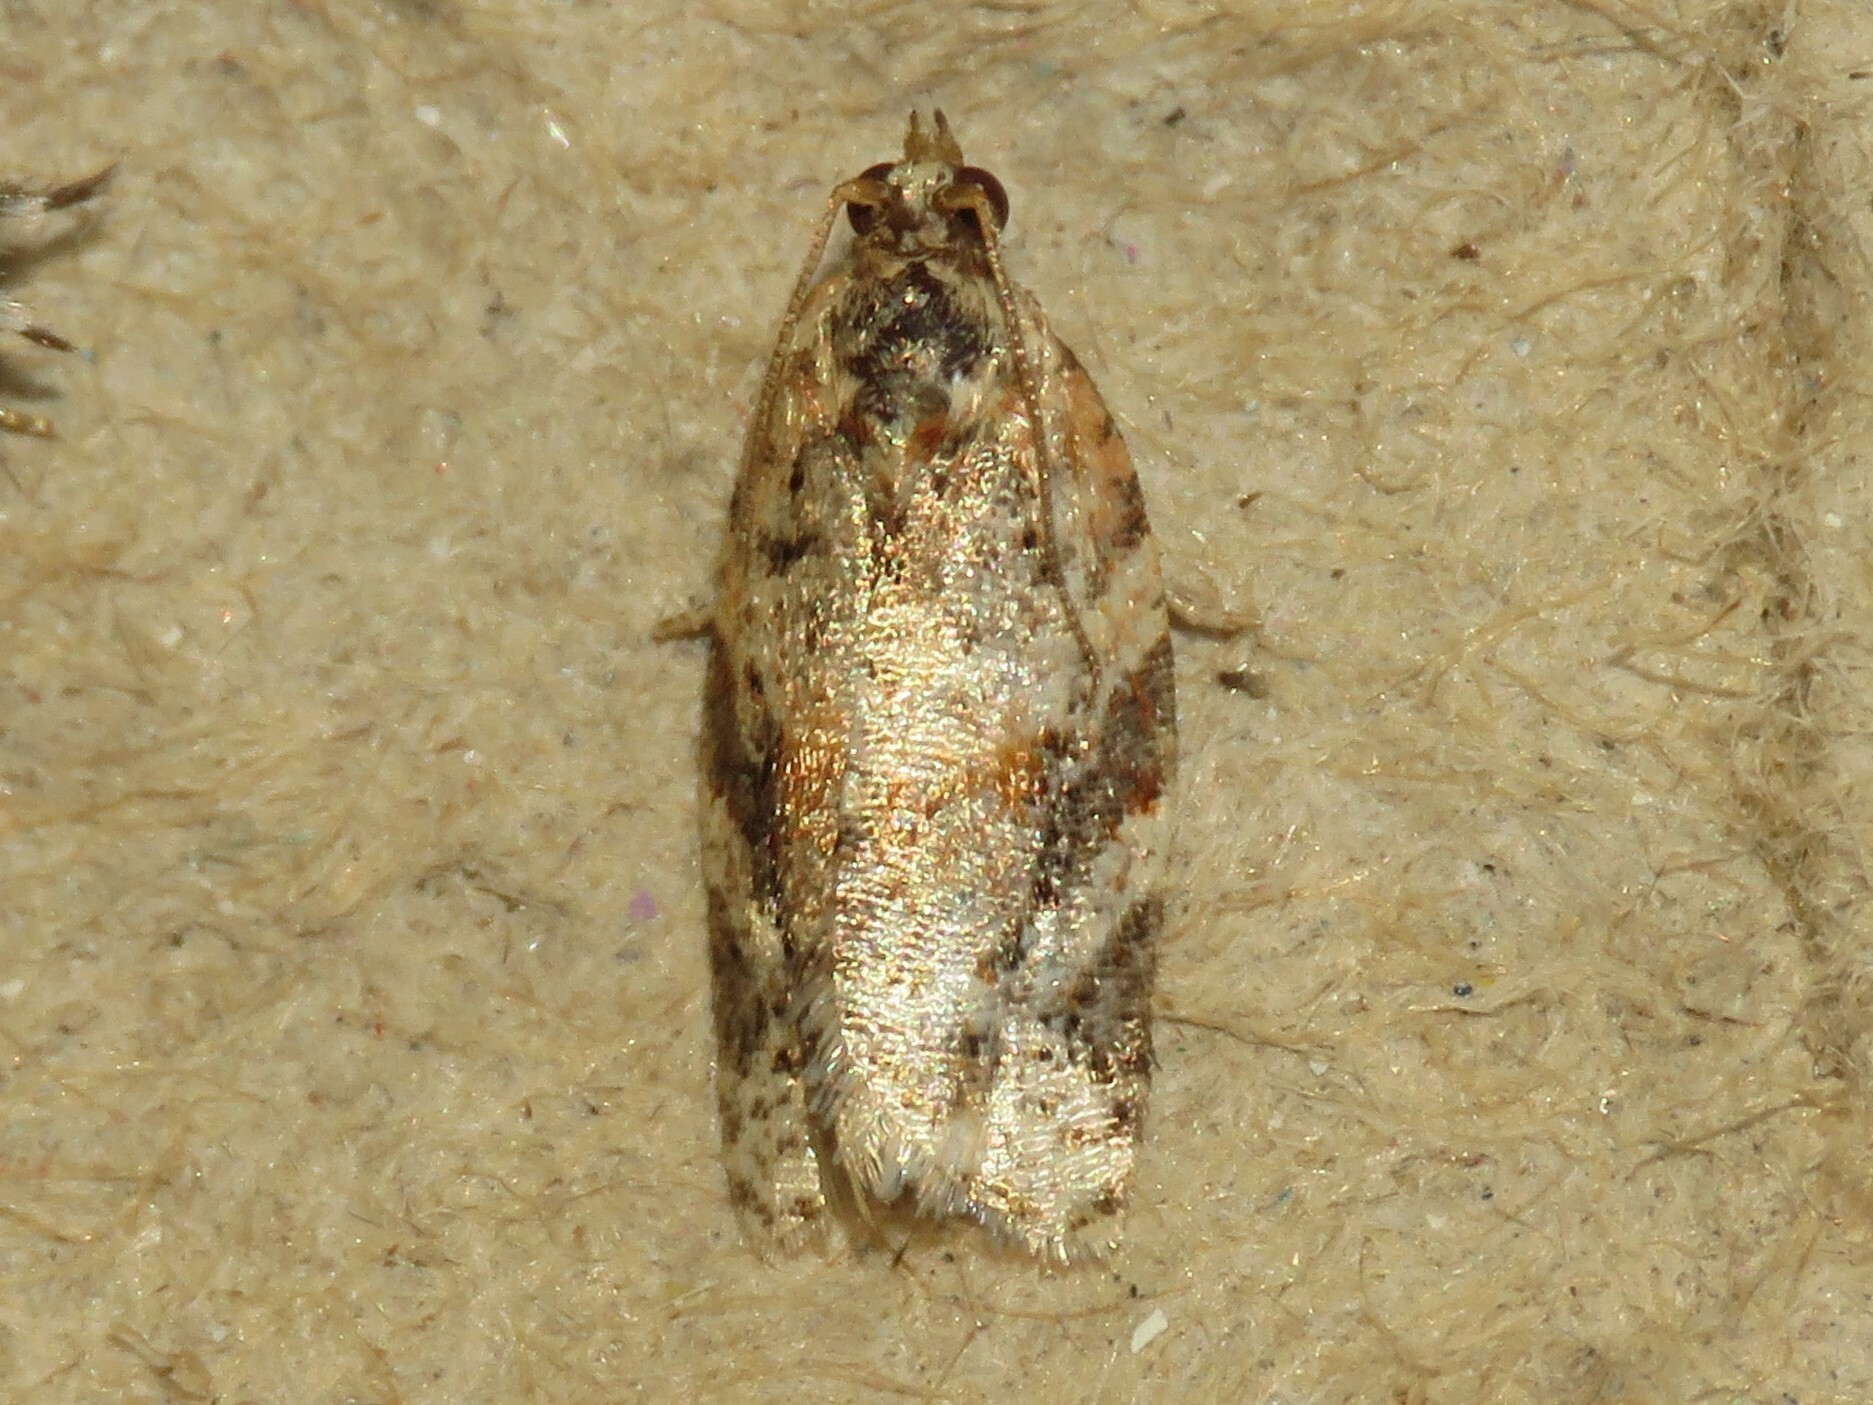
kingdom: Animalia
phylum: Arthropoda
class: Insecta
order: Lepidoptera
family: Tortricidae
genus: Argyrotaenia
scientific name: Argyrotaenia velutinana
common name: Red-banded leafroller moth
